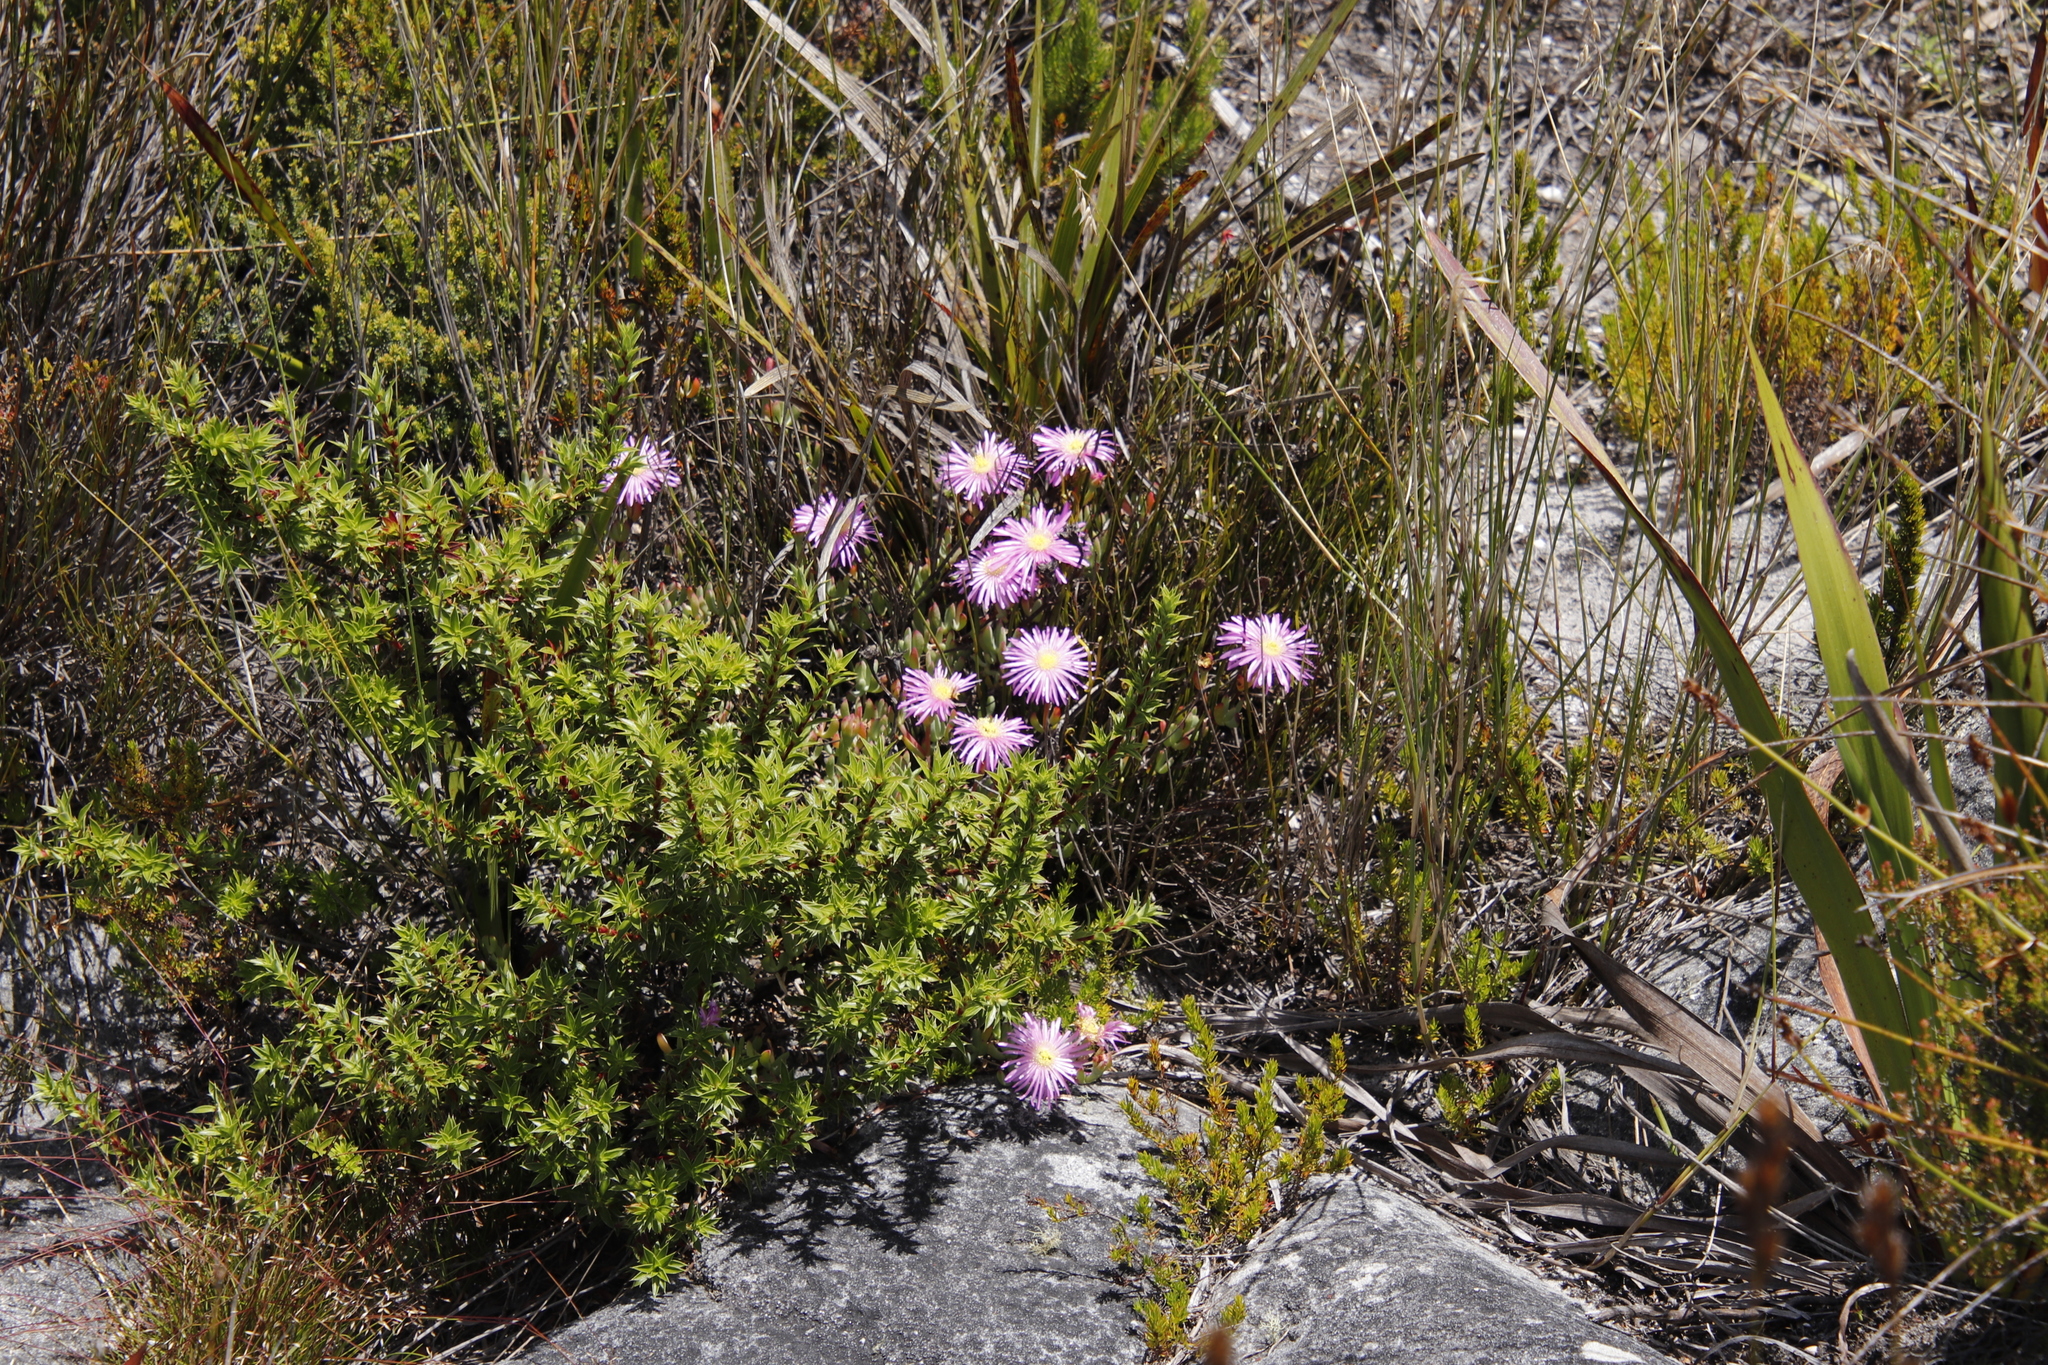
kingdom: Plantae
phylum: Tracheophyta
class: Magnoliopsida
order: Caryophyllales
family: Aizoaceae
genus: Oscularia
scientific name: Oscularia falciformis
